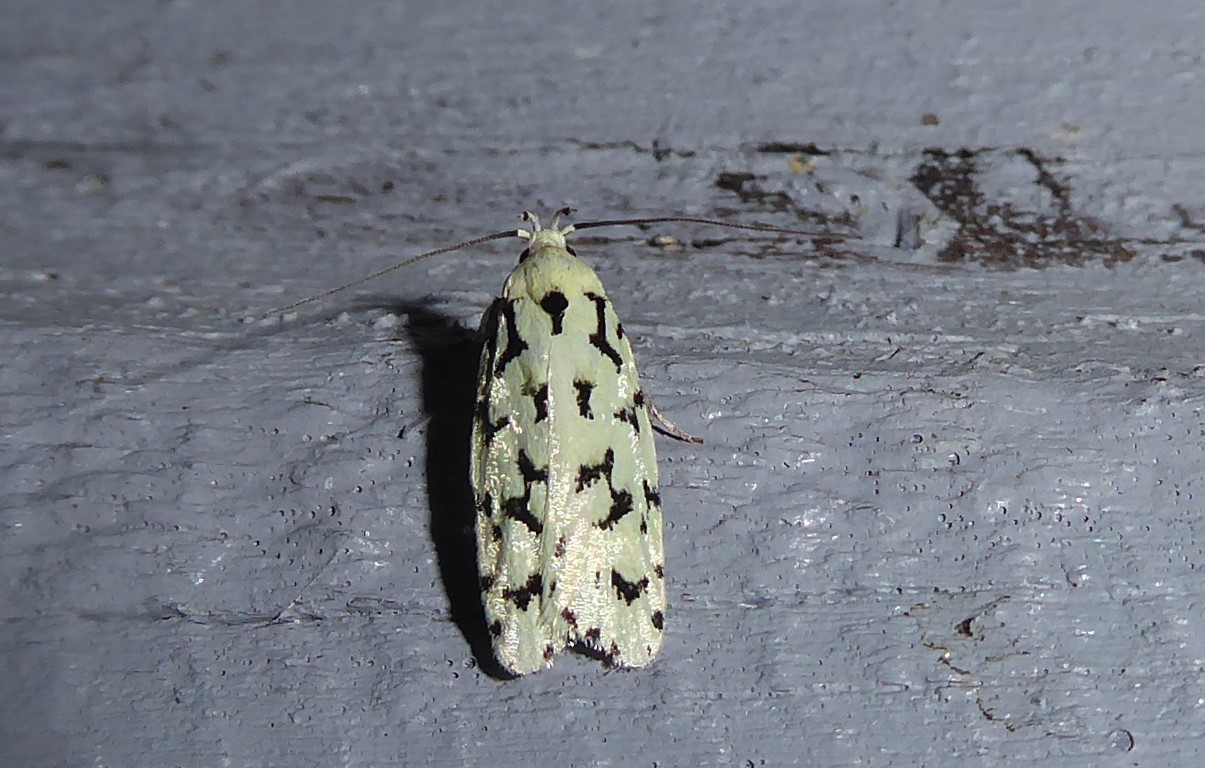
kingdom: Animalia
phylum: Arthropoda
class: Insecta
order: Lepidoptera
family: Oecophoridae
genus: Izatha
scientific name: Izatha huttoni
